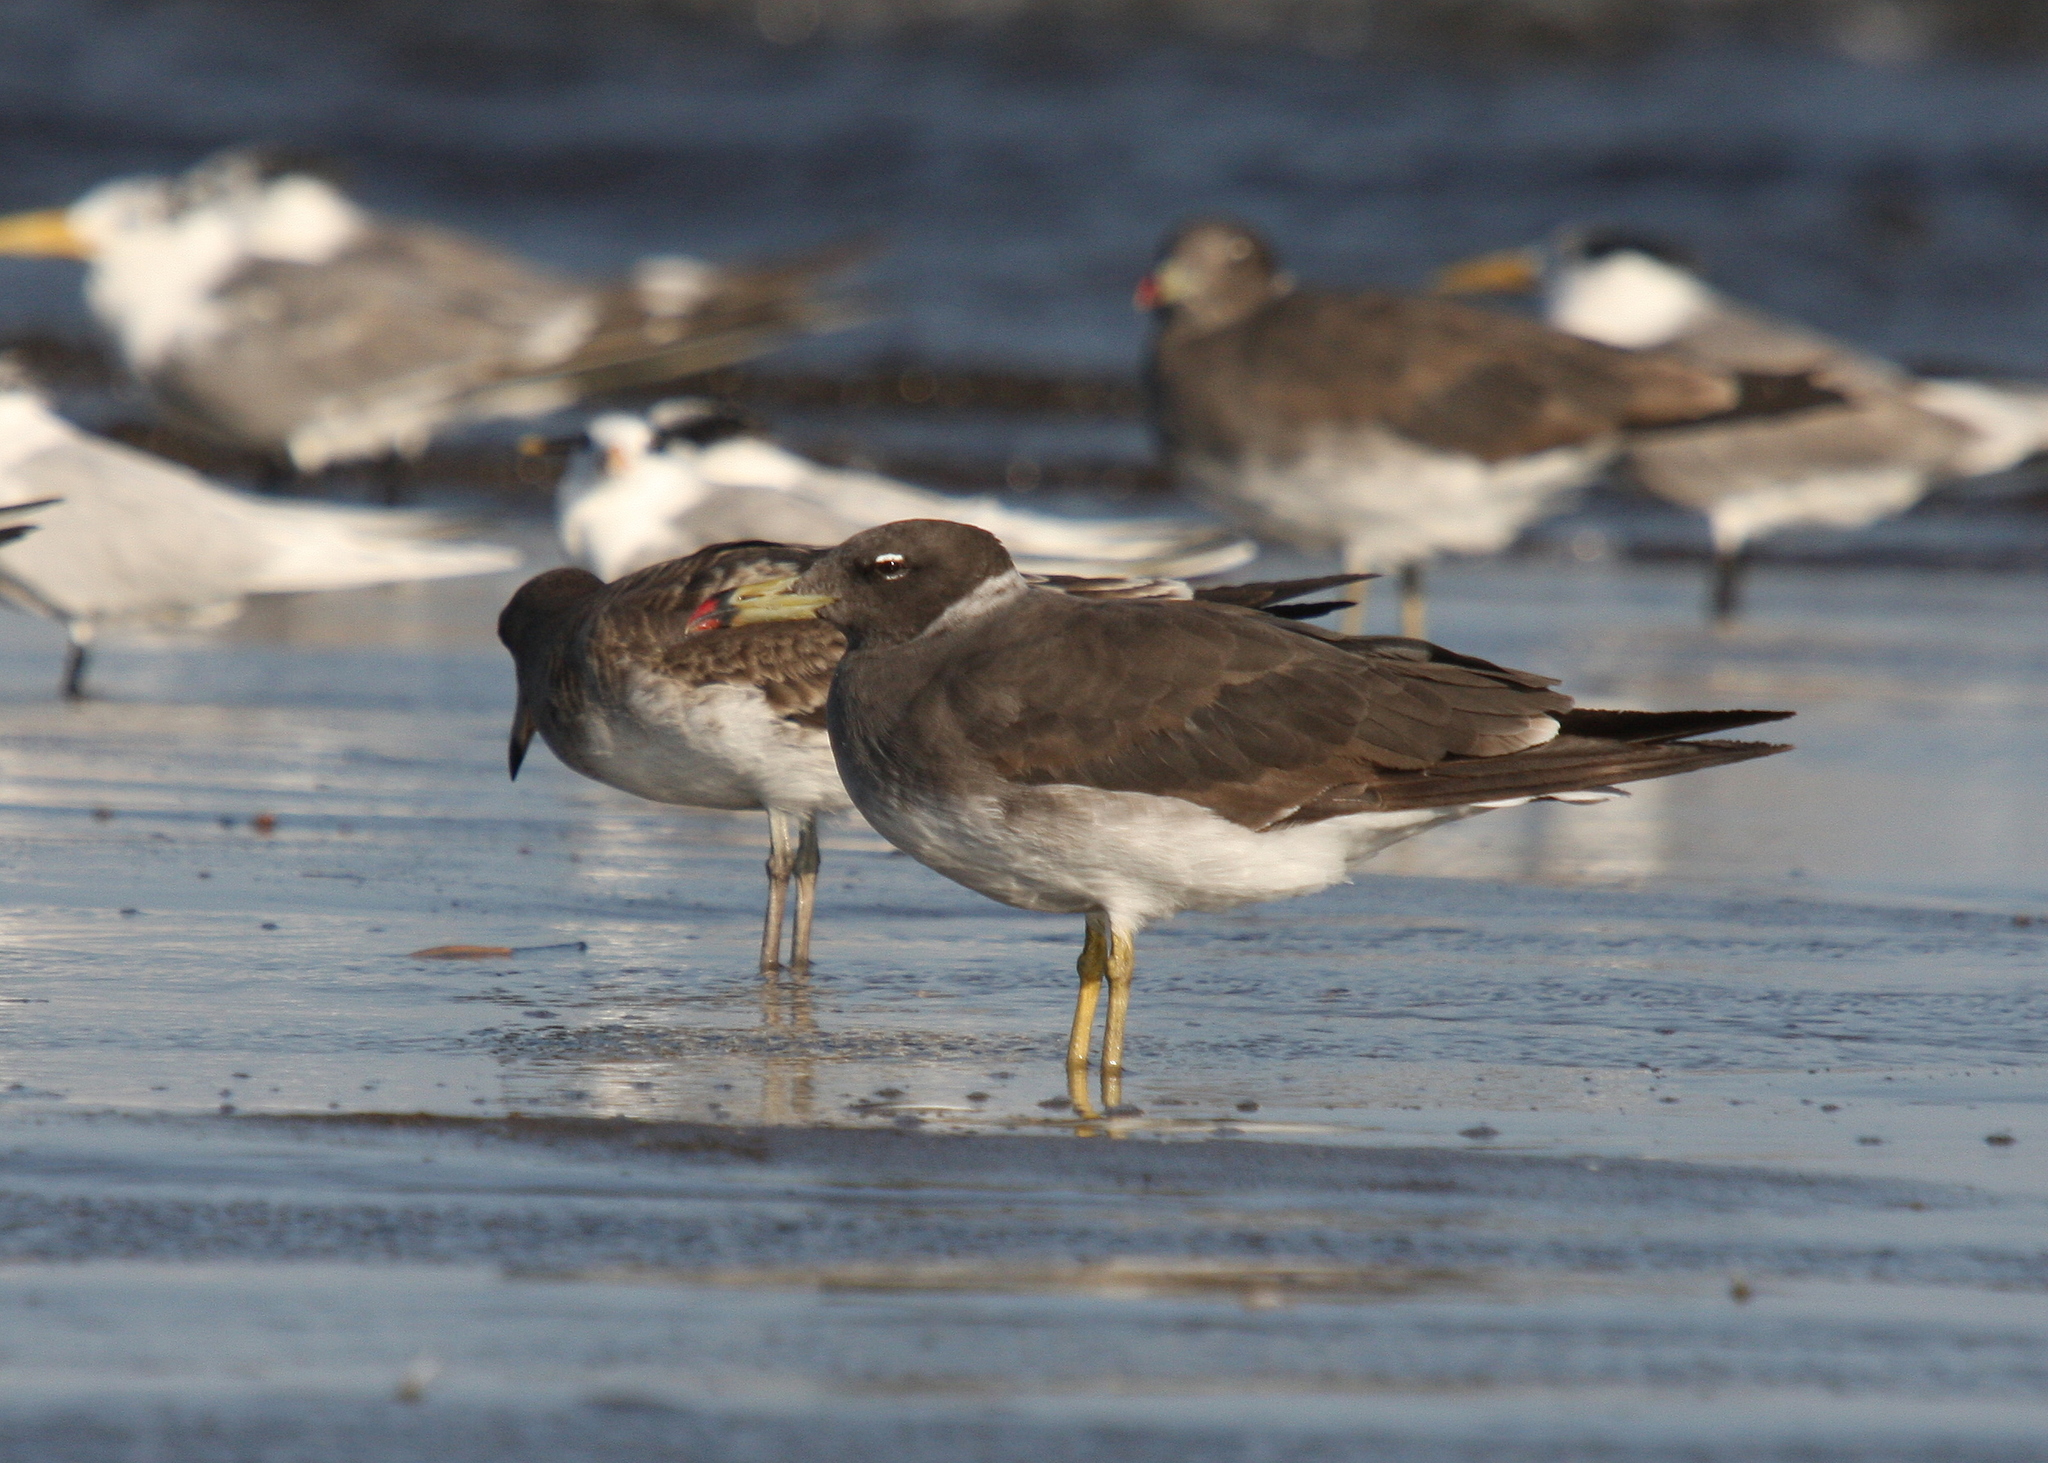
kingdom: Animalia
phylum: Chordata
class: Aves
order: Charadriiformes
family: Laridae
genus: Ichthyaetus
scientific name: Ichthyaetus hemprichii
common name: Sooty gull
